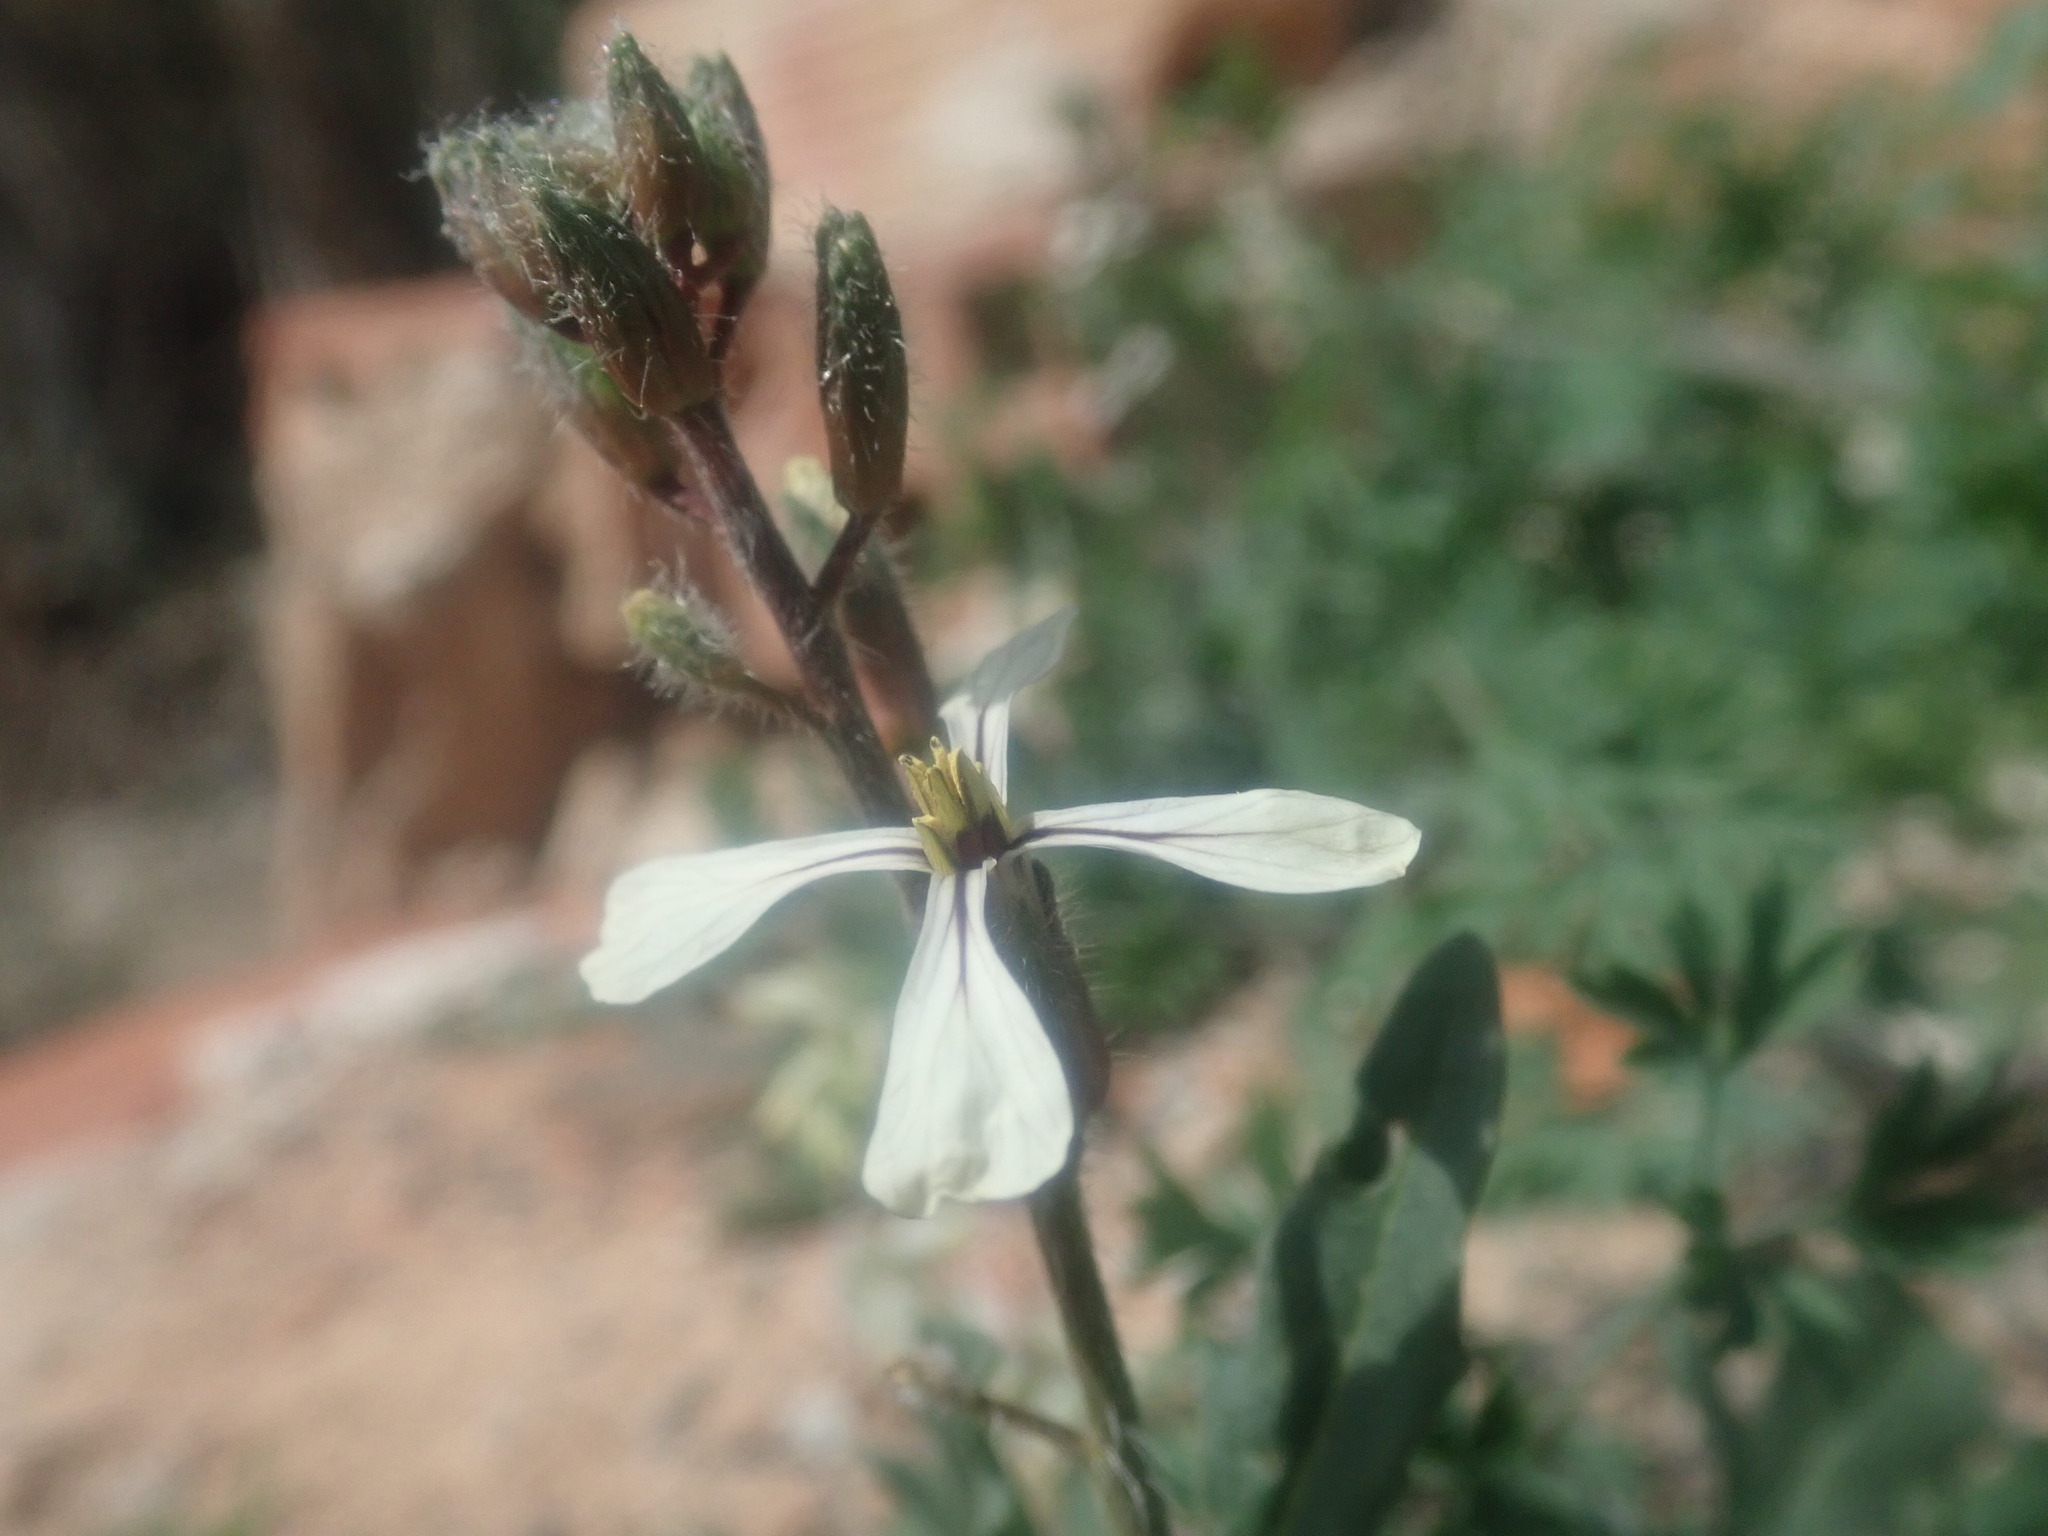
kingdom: Plantae
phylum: Tracheophyta
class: Magnoliopsida
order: Brassicales
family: Brassicaceae
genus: Eruca
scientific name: Eruca vesicaria
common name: Garden rocket
